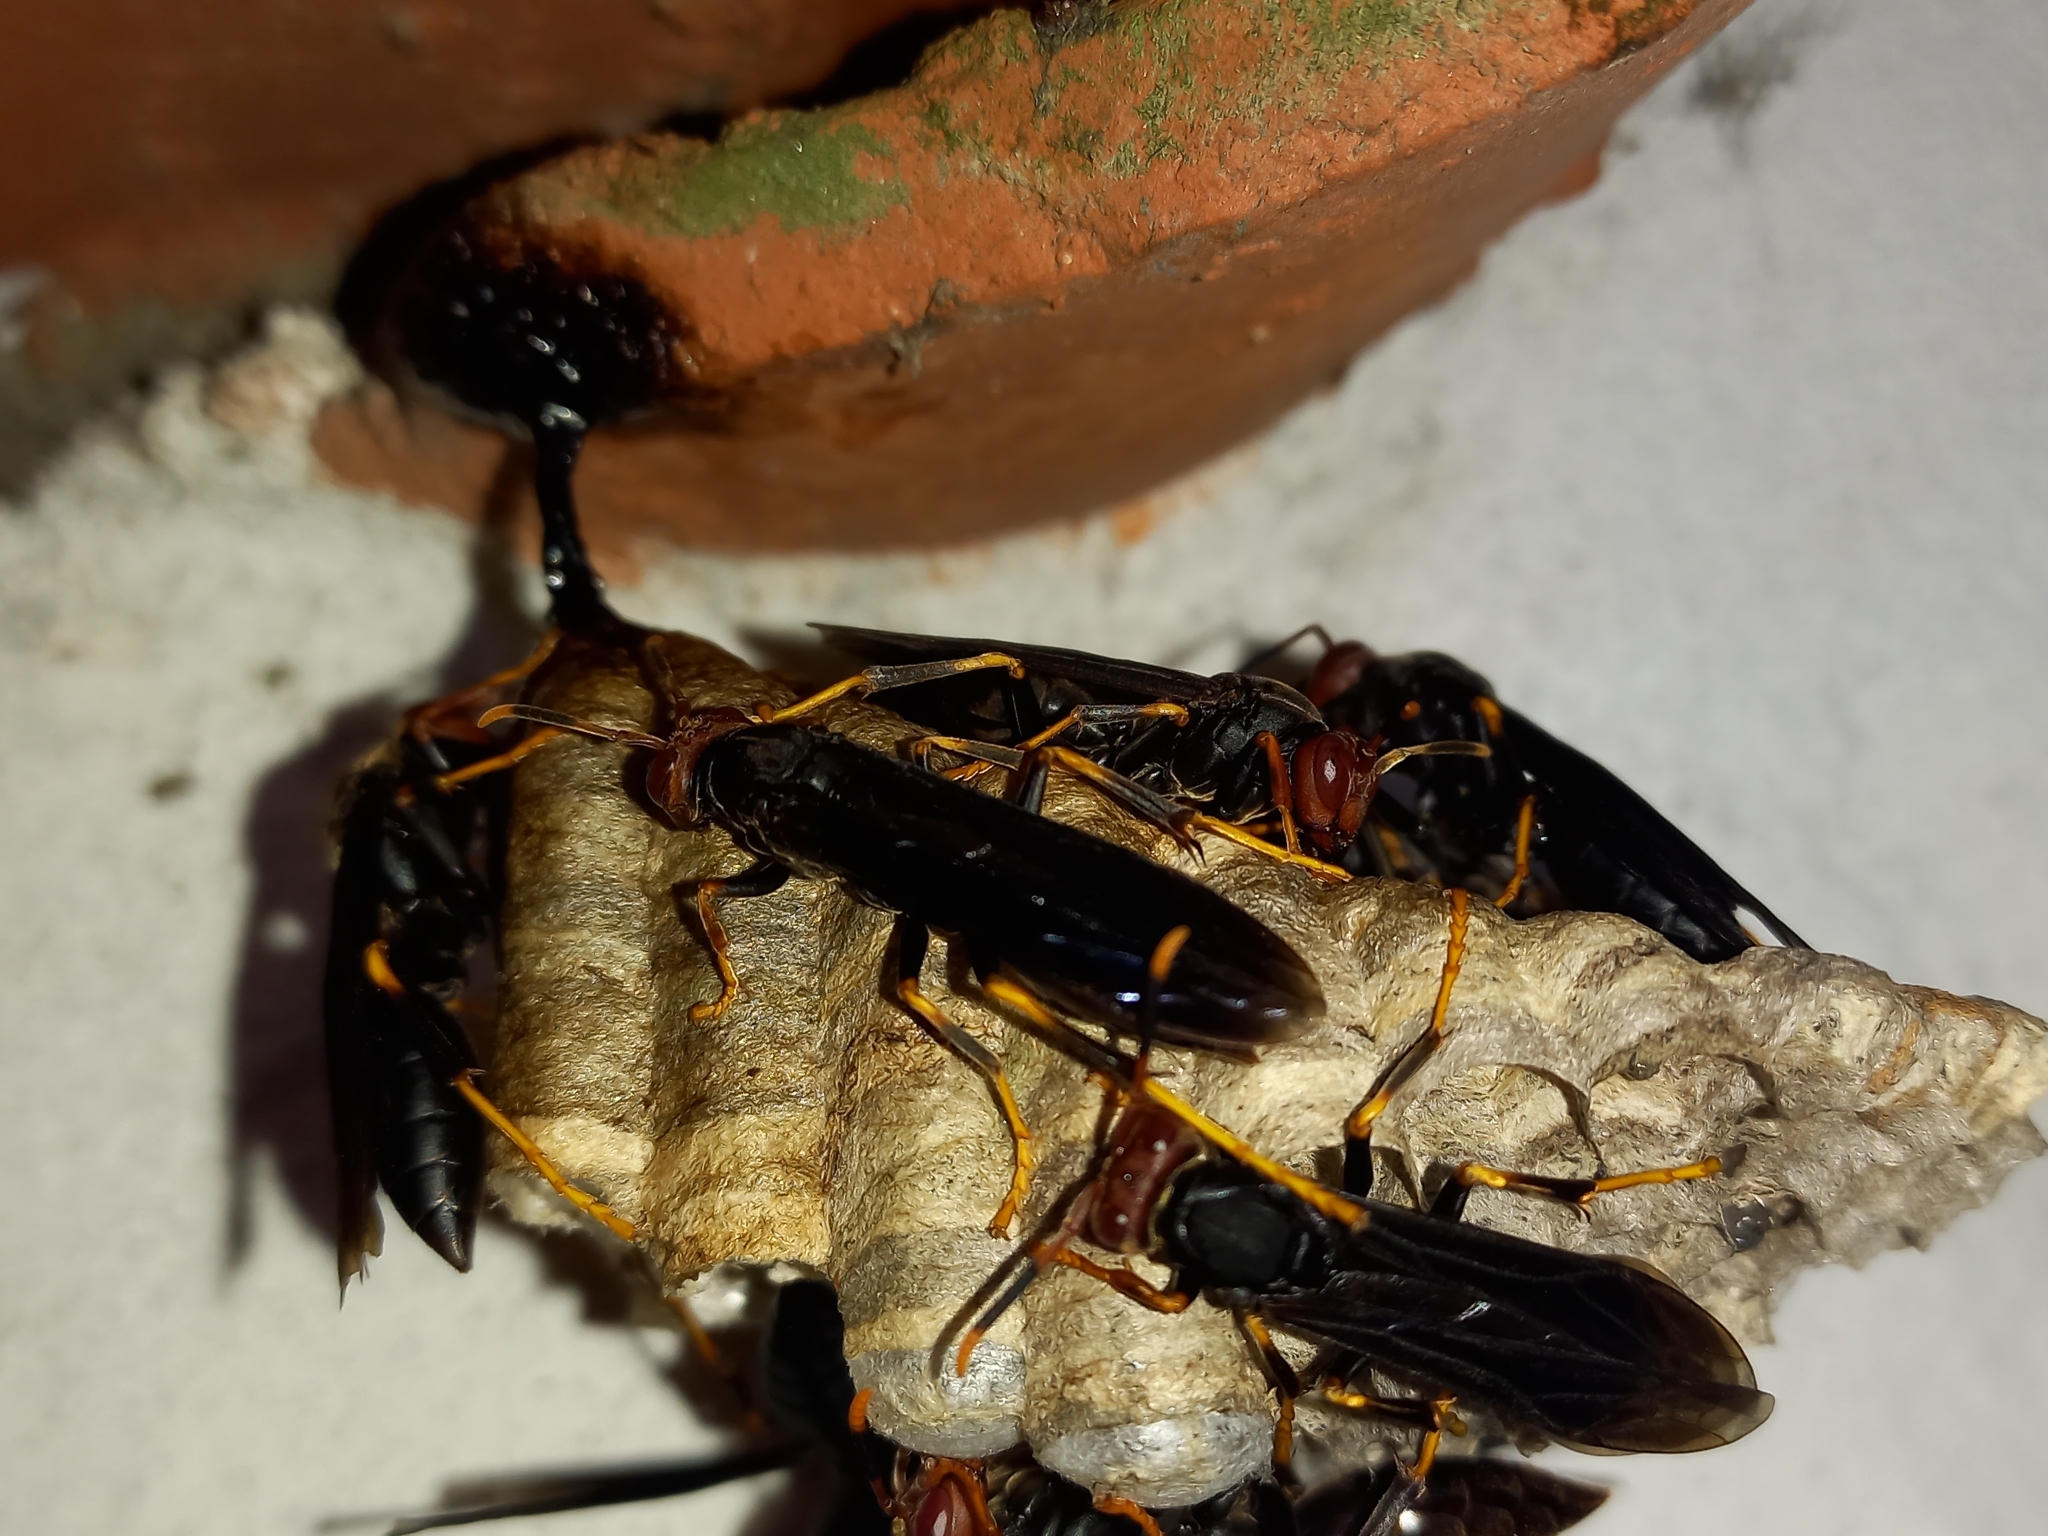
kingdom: Animalia
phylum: Arthropoda
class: Insecta
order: Hymenoptera
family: Eumenidae
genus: Polistes
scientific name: Polistes erythrocephalus
